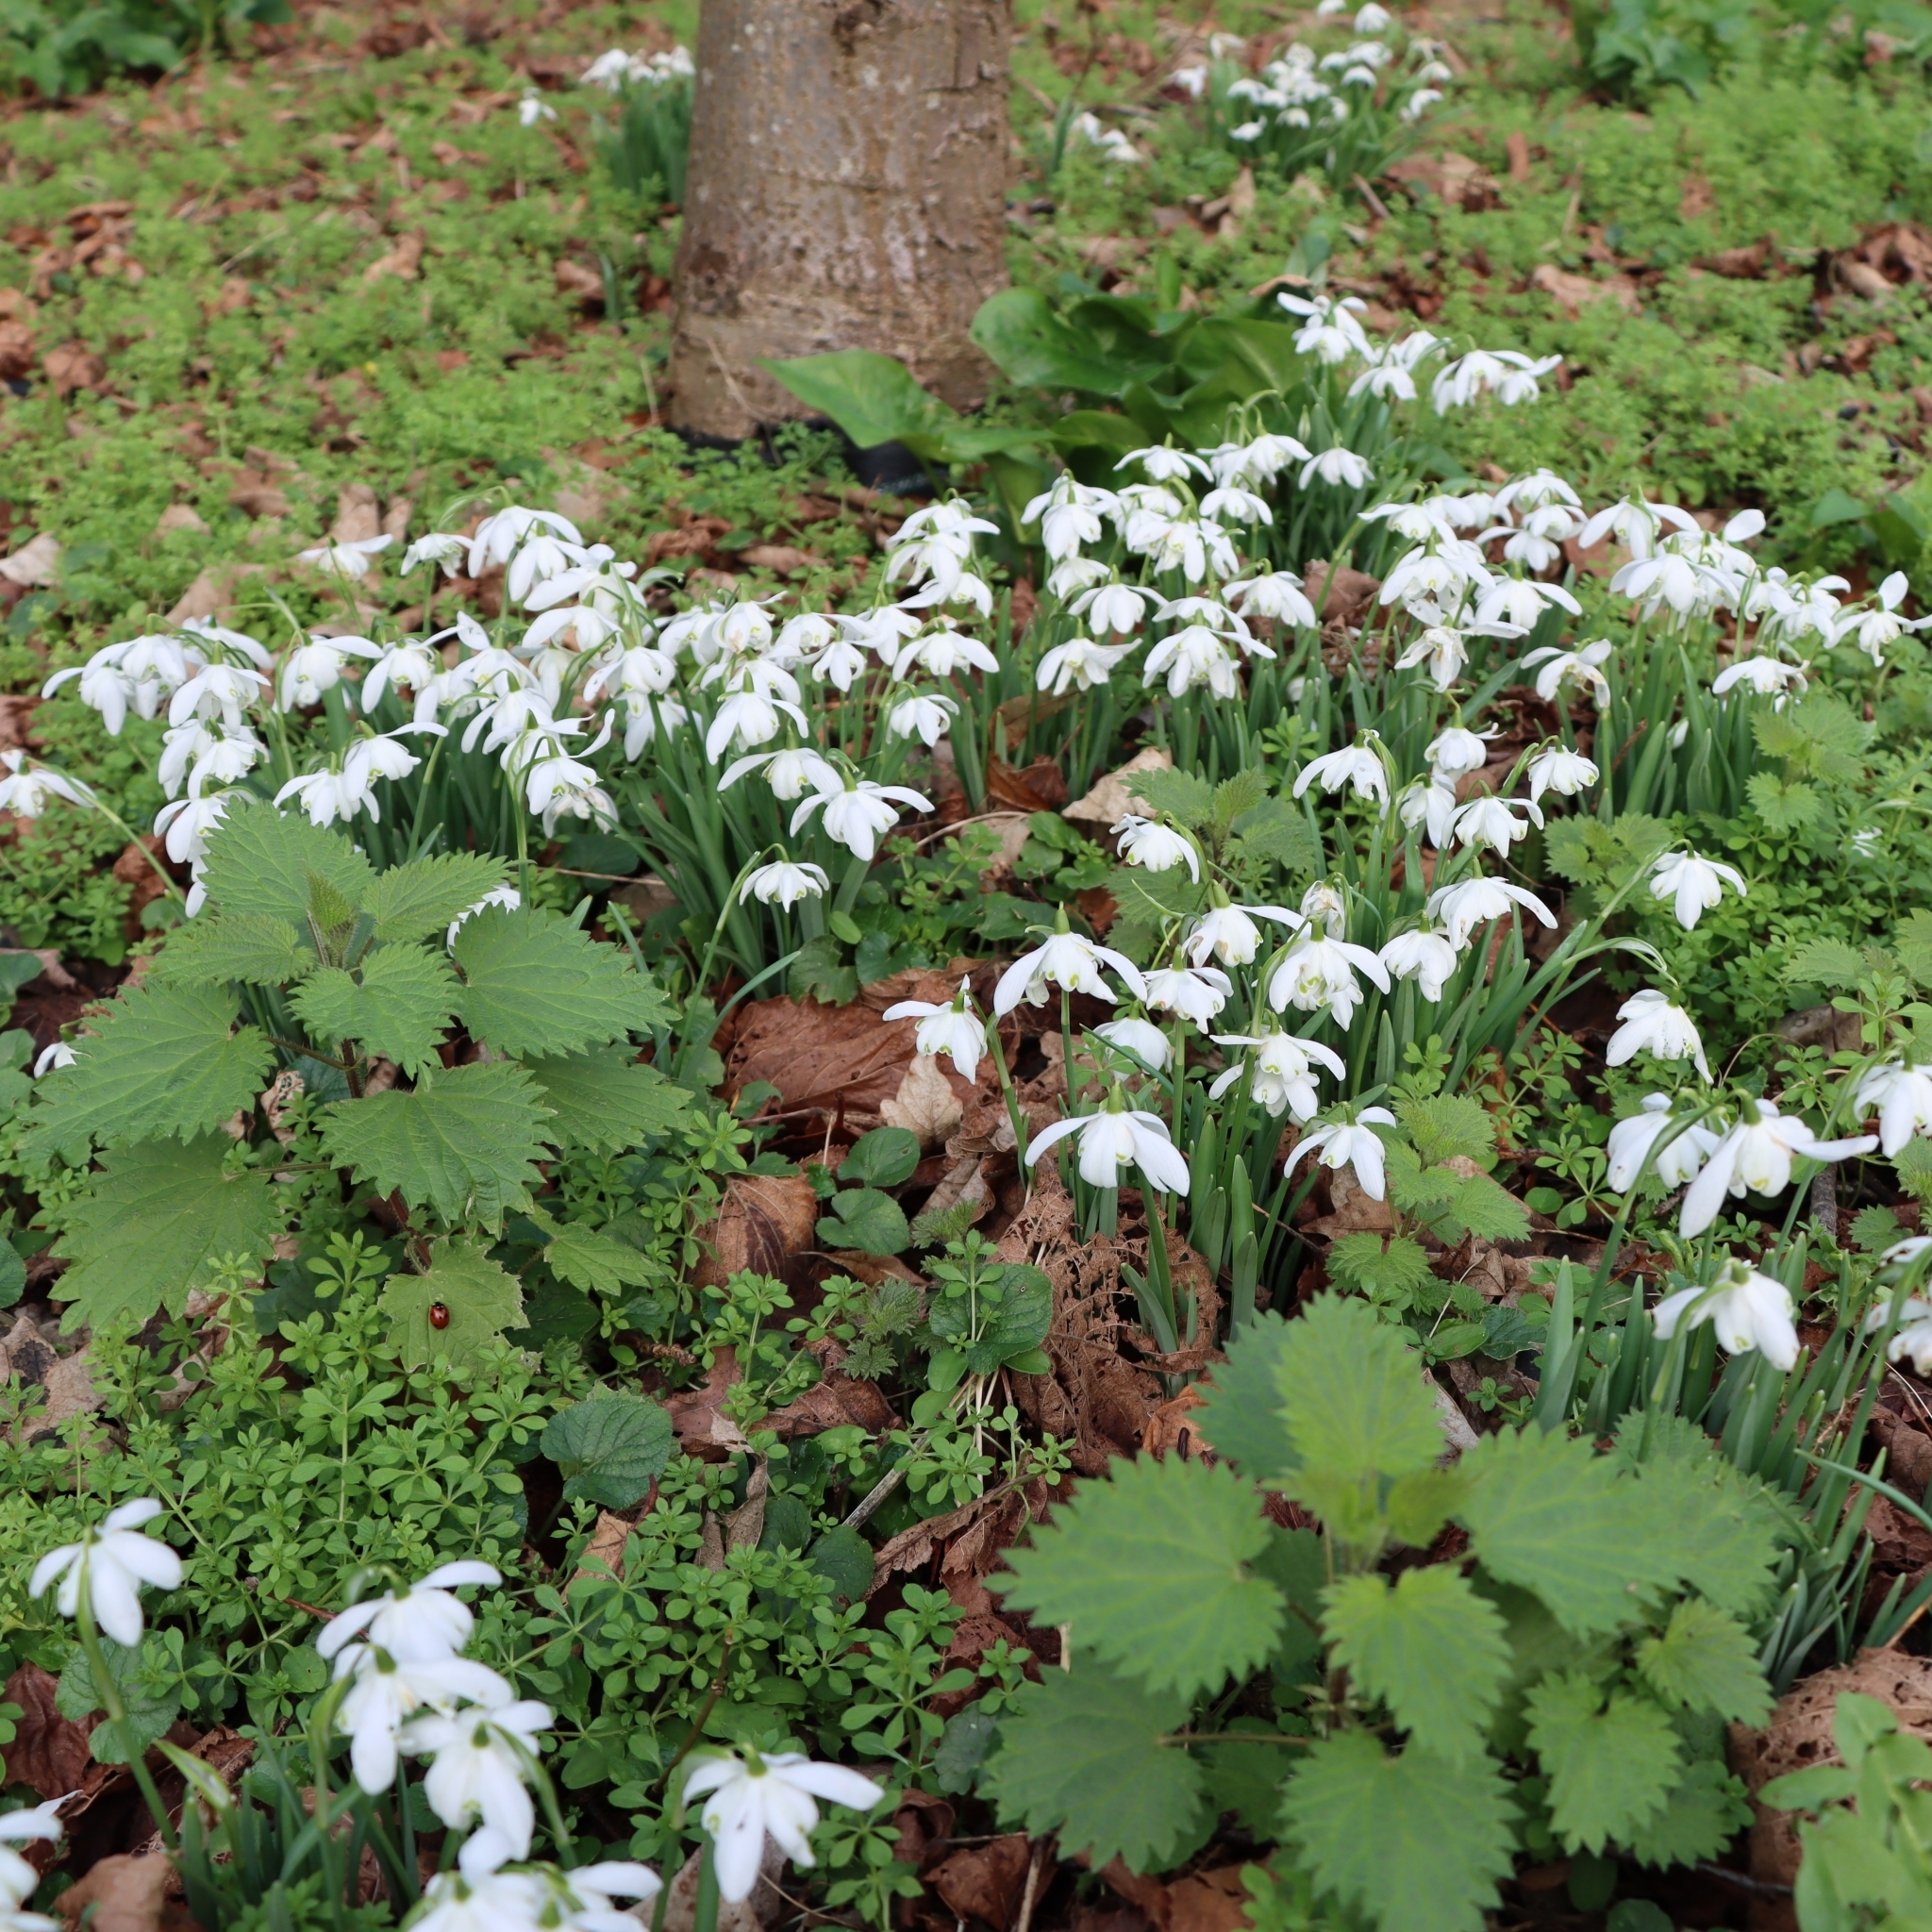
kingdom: Plantae
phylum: Tracheophyta
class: Liliopsida
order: Asparagales
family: Amaryllidaceae
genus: Galanthus
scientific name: Galanthus nivalis
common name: Snowdrop
